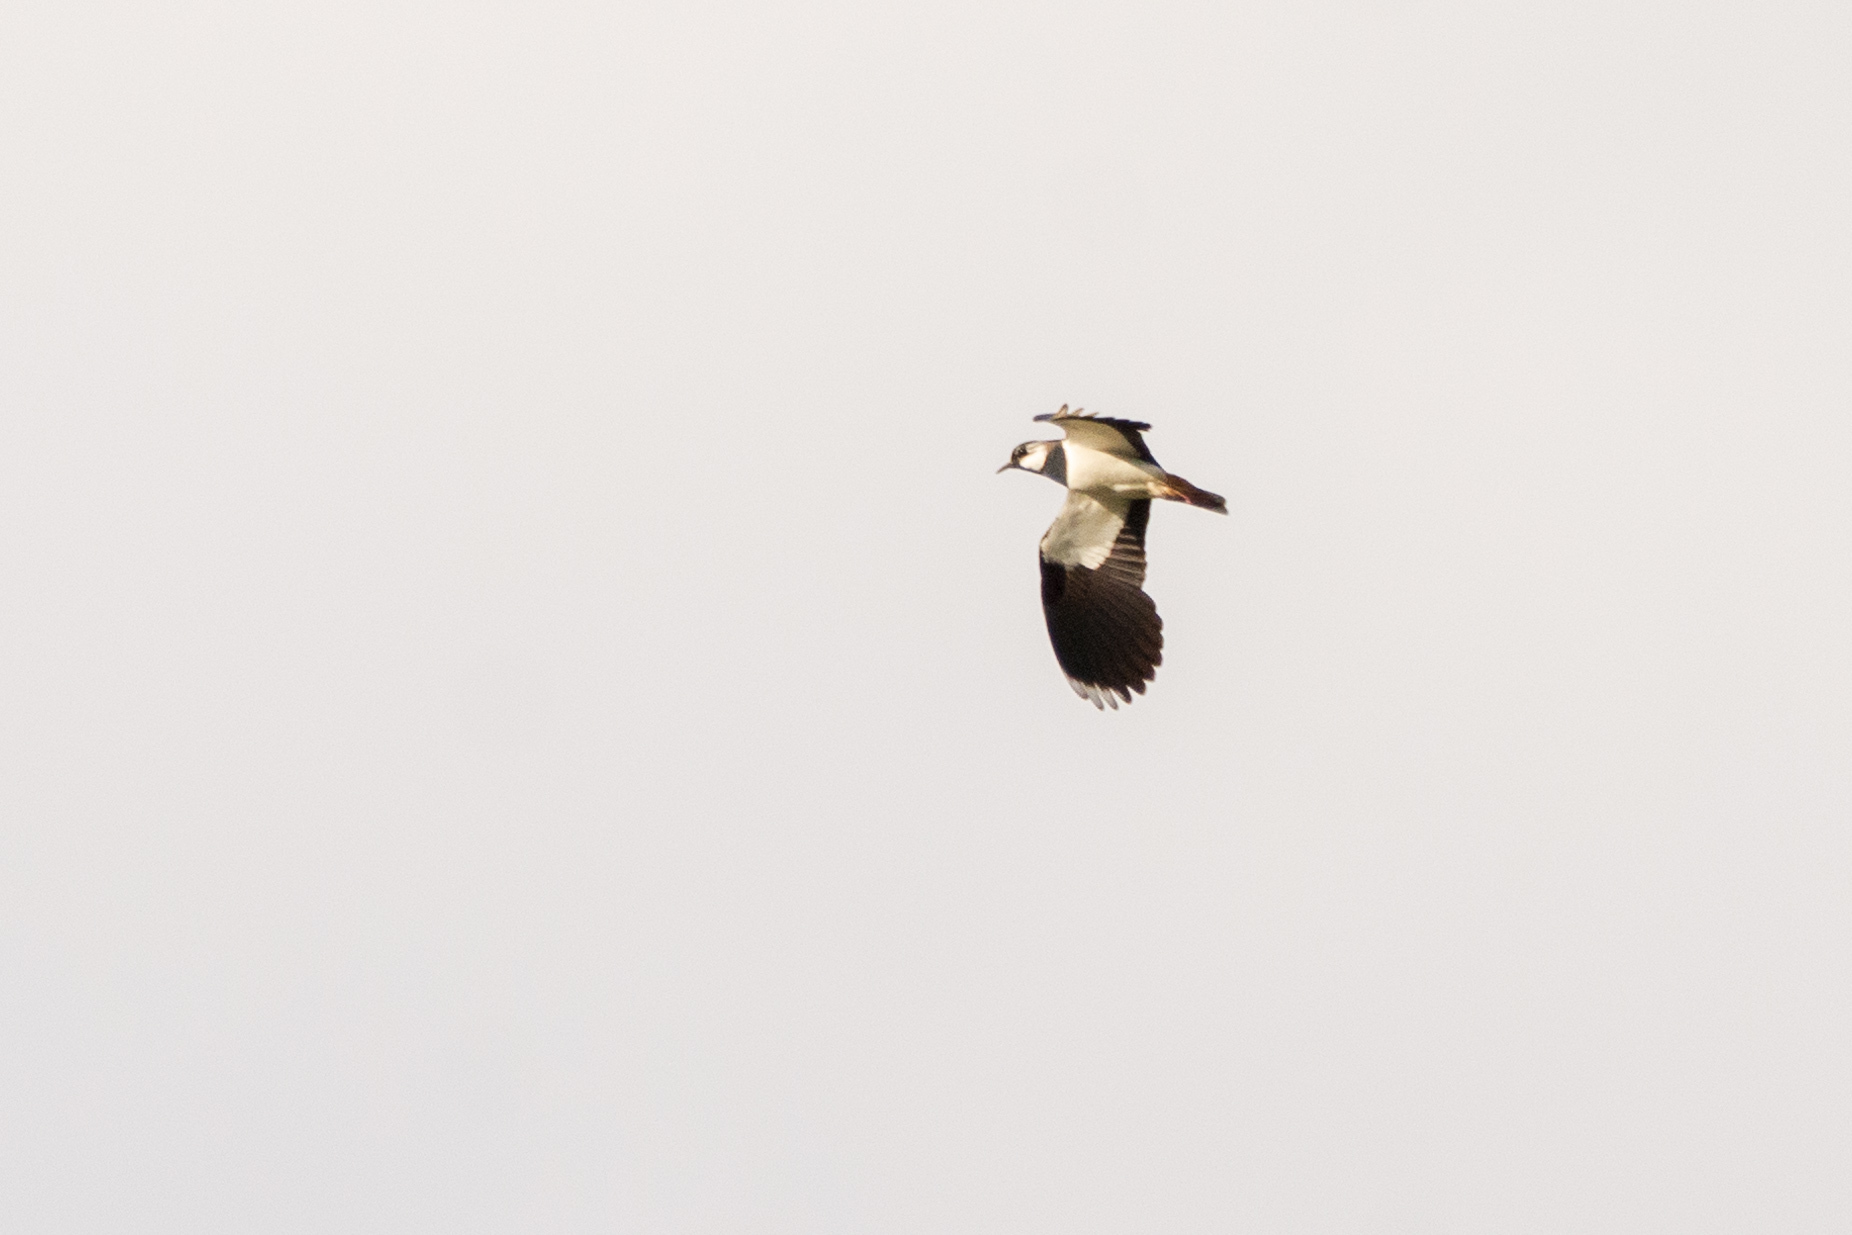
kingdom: Animalia
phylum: Chordata
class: Aves
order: Charadriiformes
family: Charadriidae
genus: Vanellus
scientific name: Vanellus vanellus
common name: Northern lapwing
